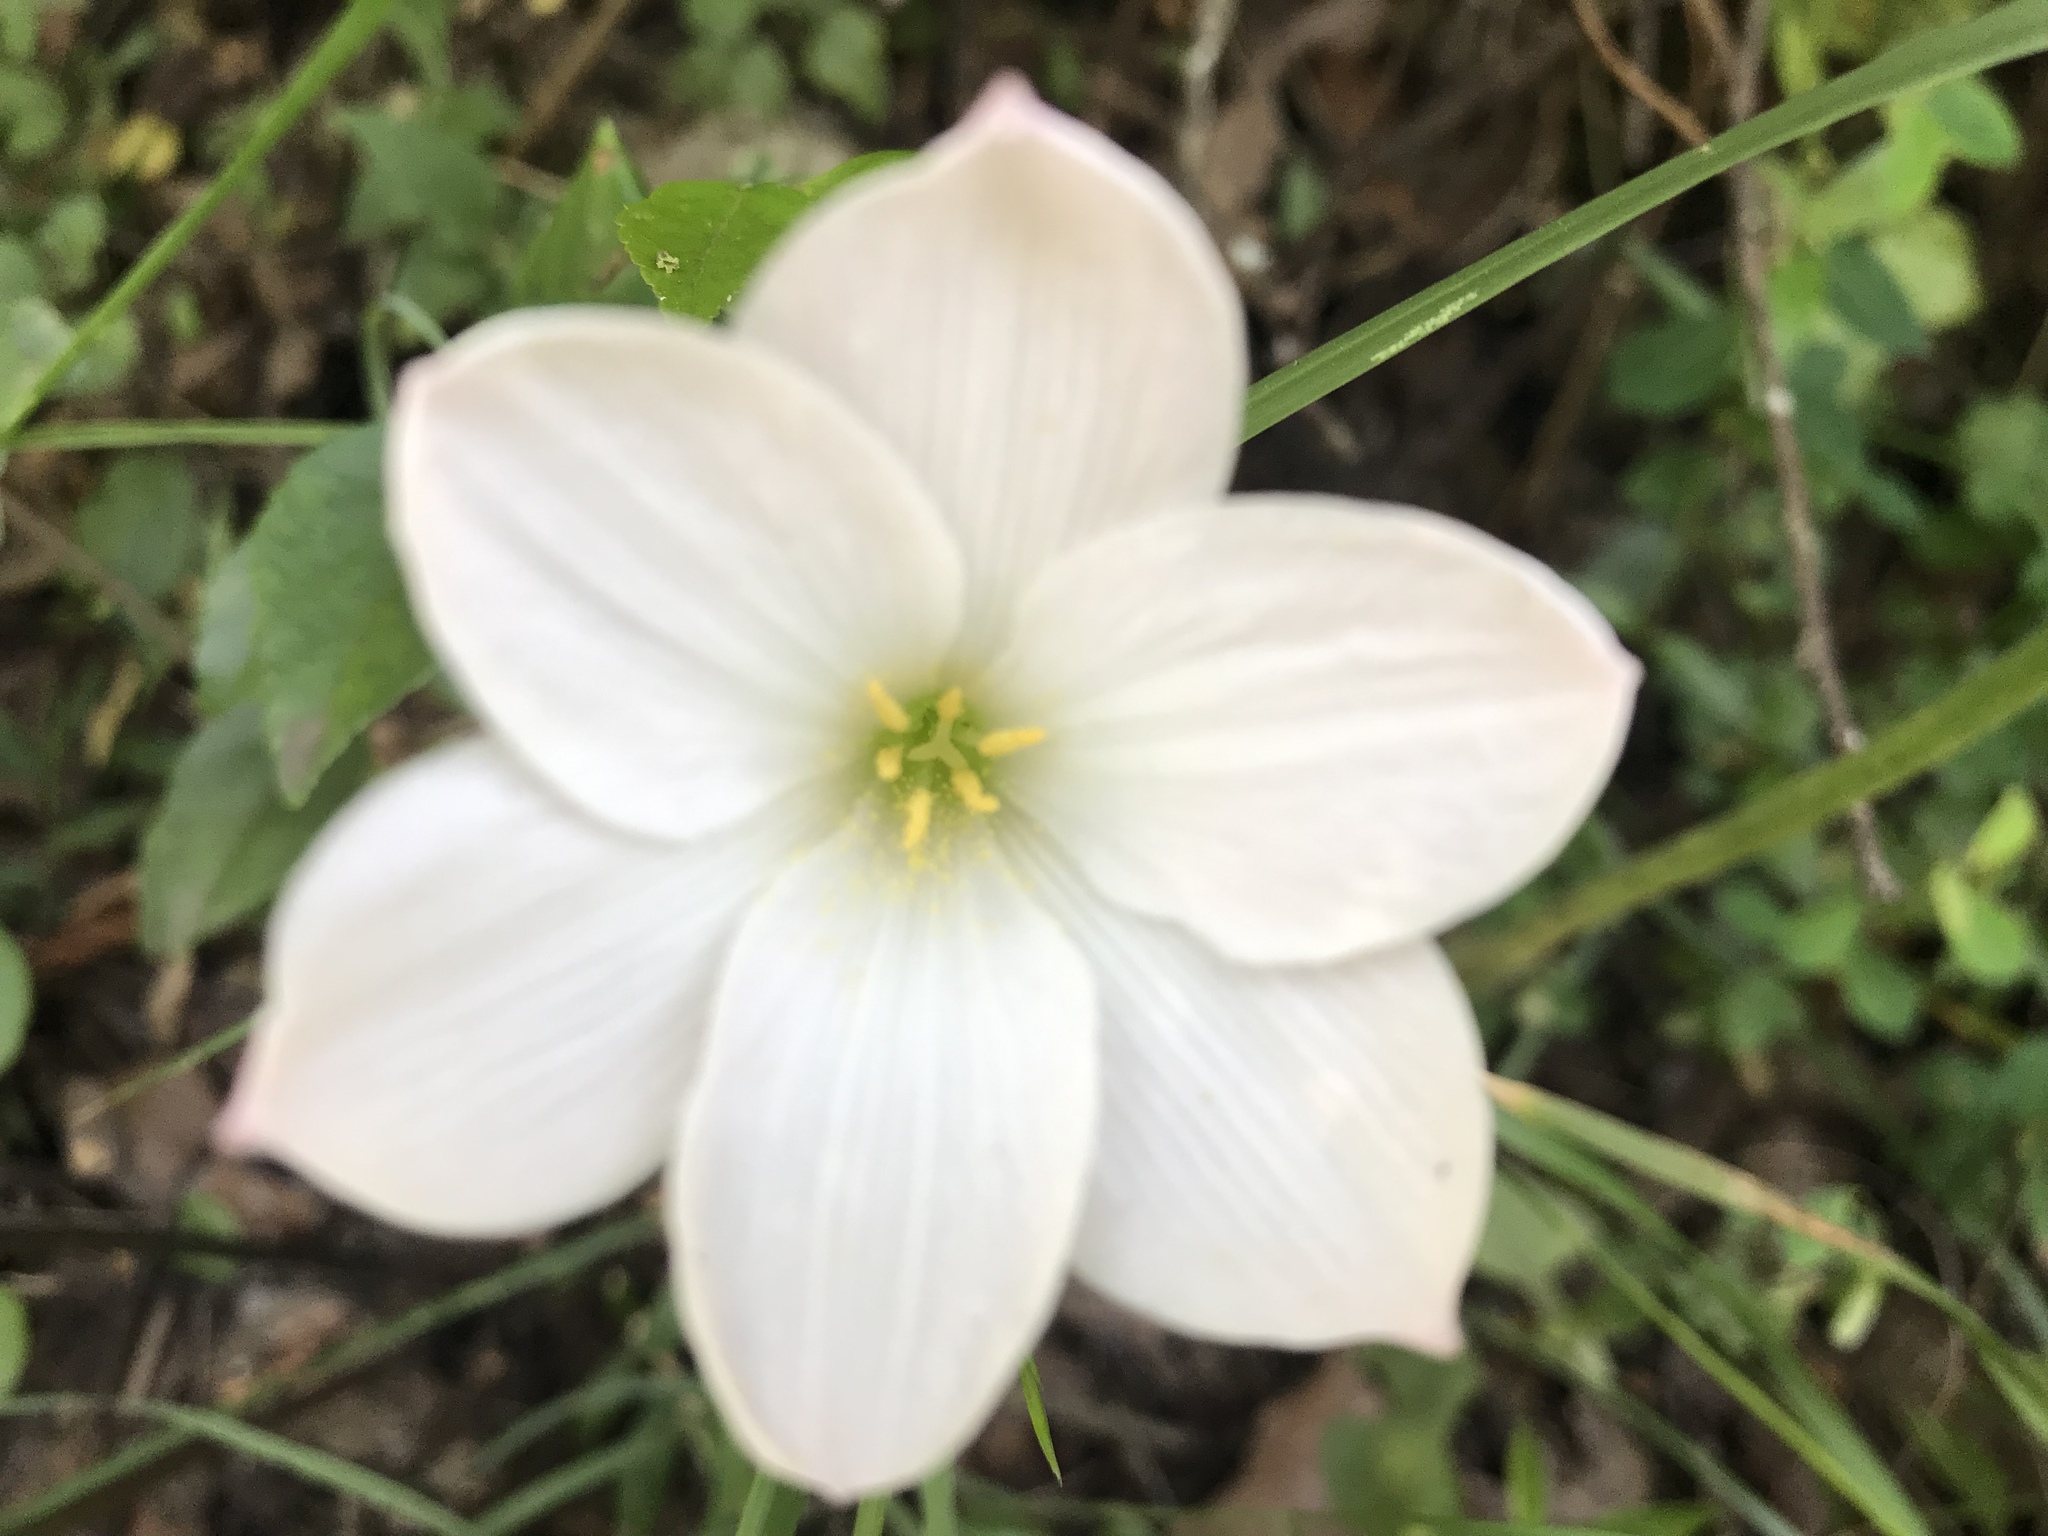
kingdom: Plantae
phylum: Tracheophyta
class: Liliopsida
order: Asparagales
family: Amaryllidaceae
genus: Zephyranthes
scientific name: Zephyranthes drummondii
